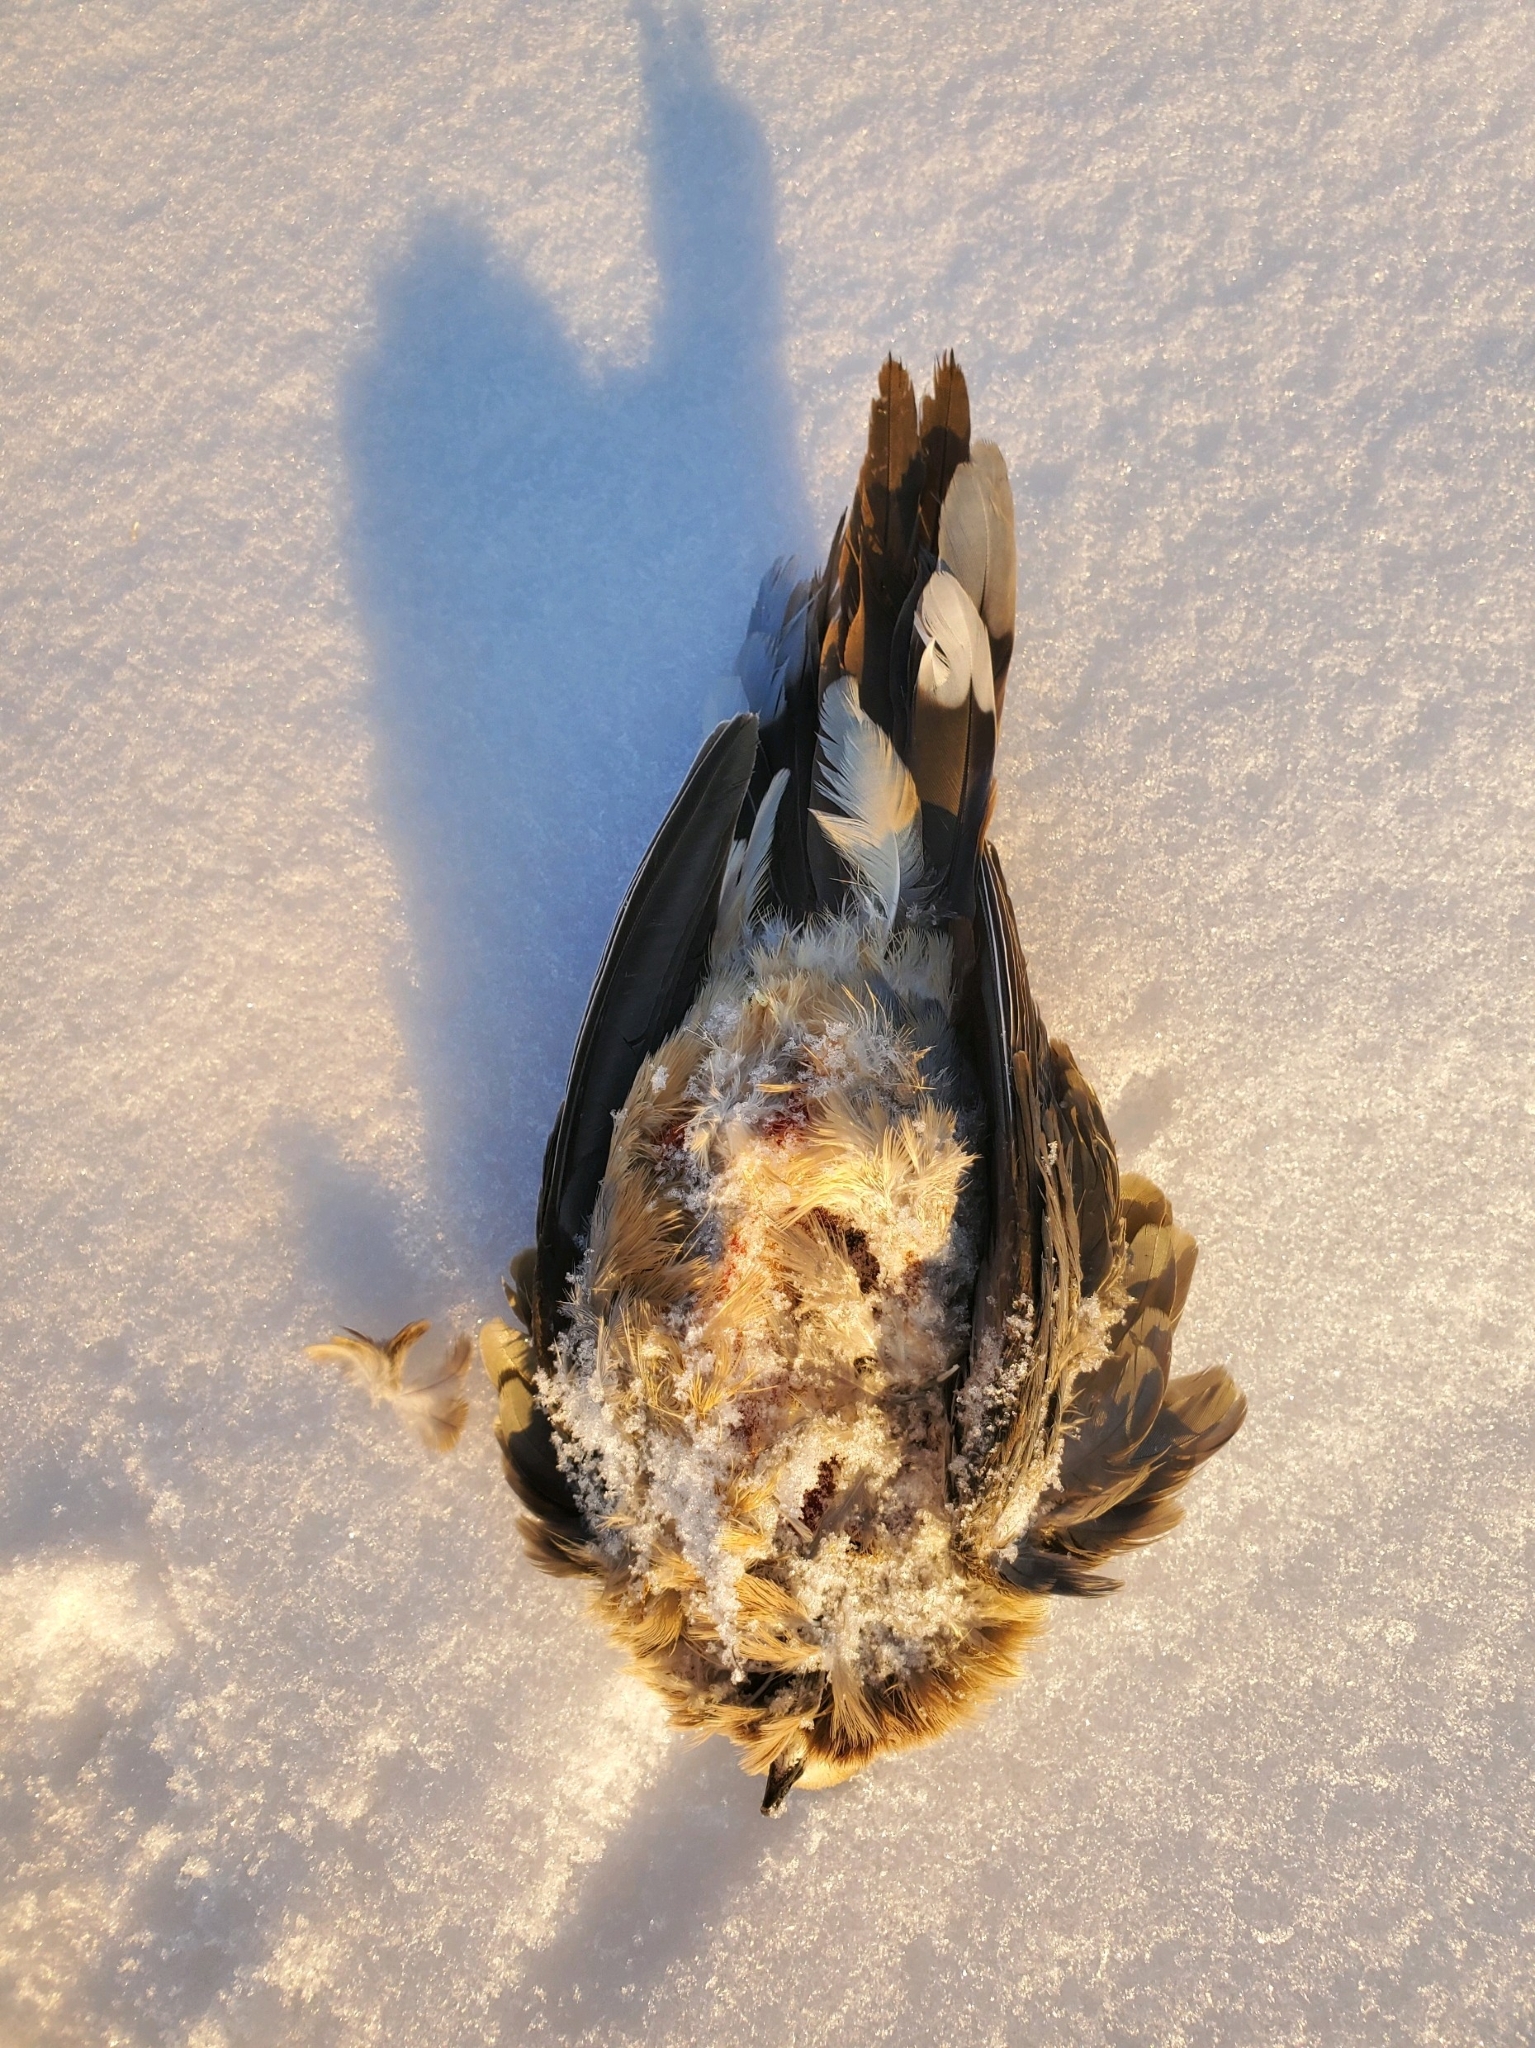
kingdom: Animalia
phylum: Chordata
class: Aves
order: Columbiformes
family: Columbidae
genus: Zenaida
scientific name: Zenaida macroura
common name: Mourning dove
